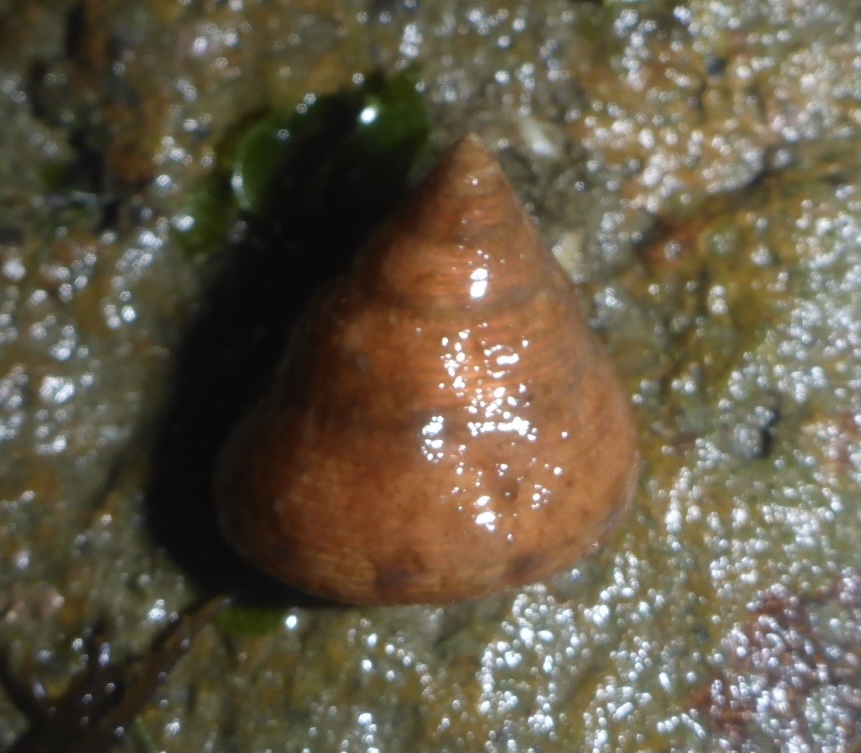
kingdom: Animalia
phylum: Mollusca
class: Gastropoda
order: Trochida
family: Calliostomatidae
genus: Calliostoma
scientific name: Calliostoma gloriosum
